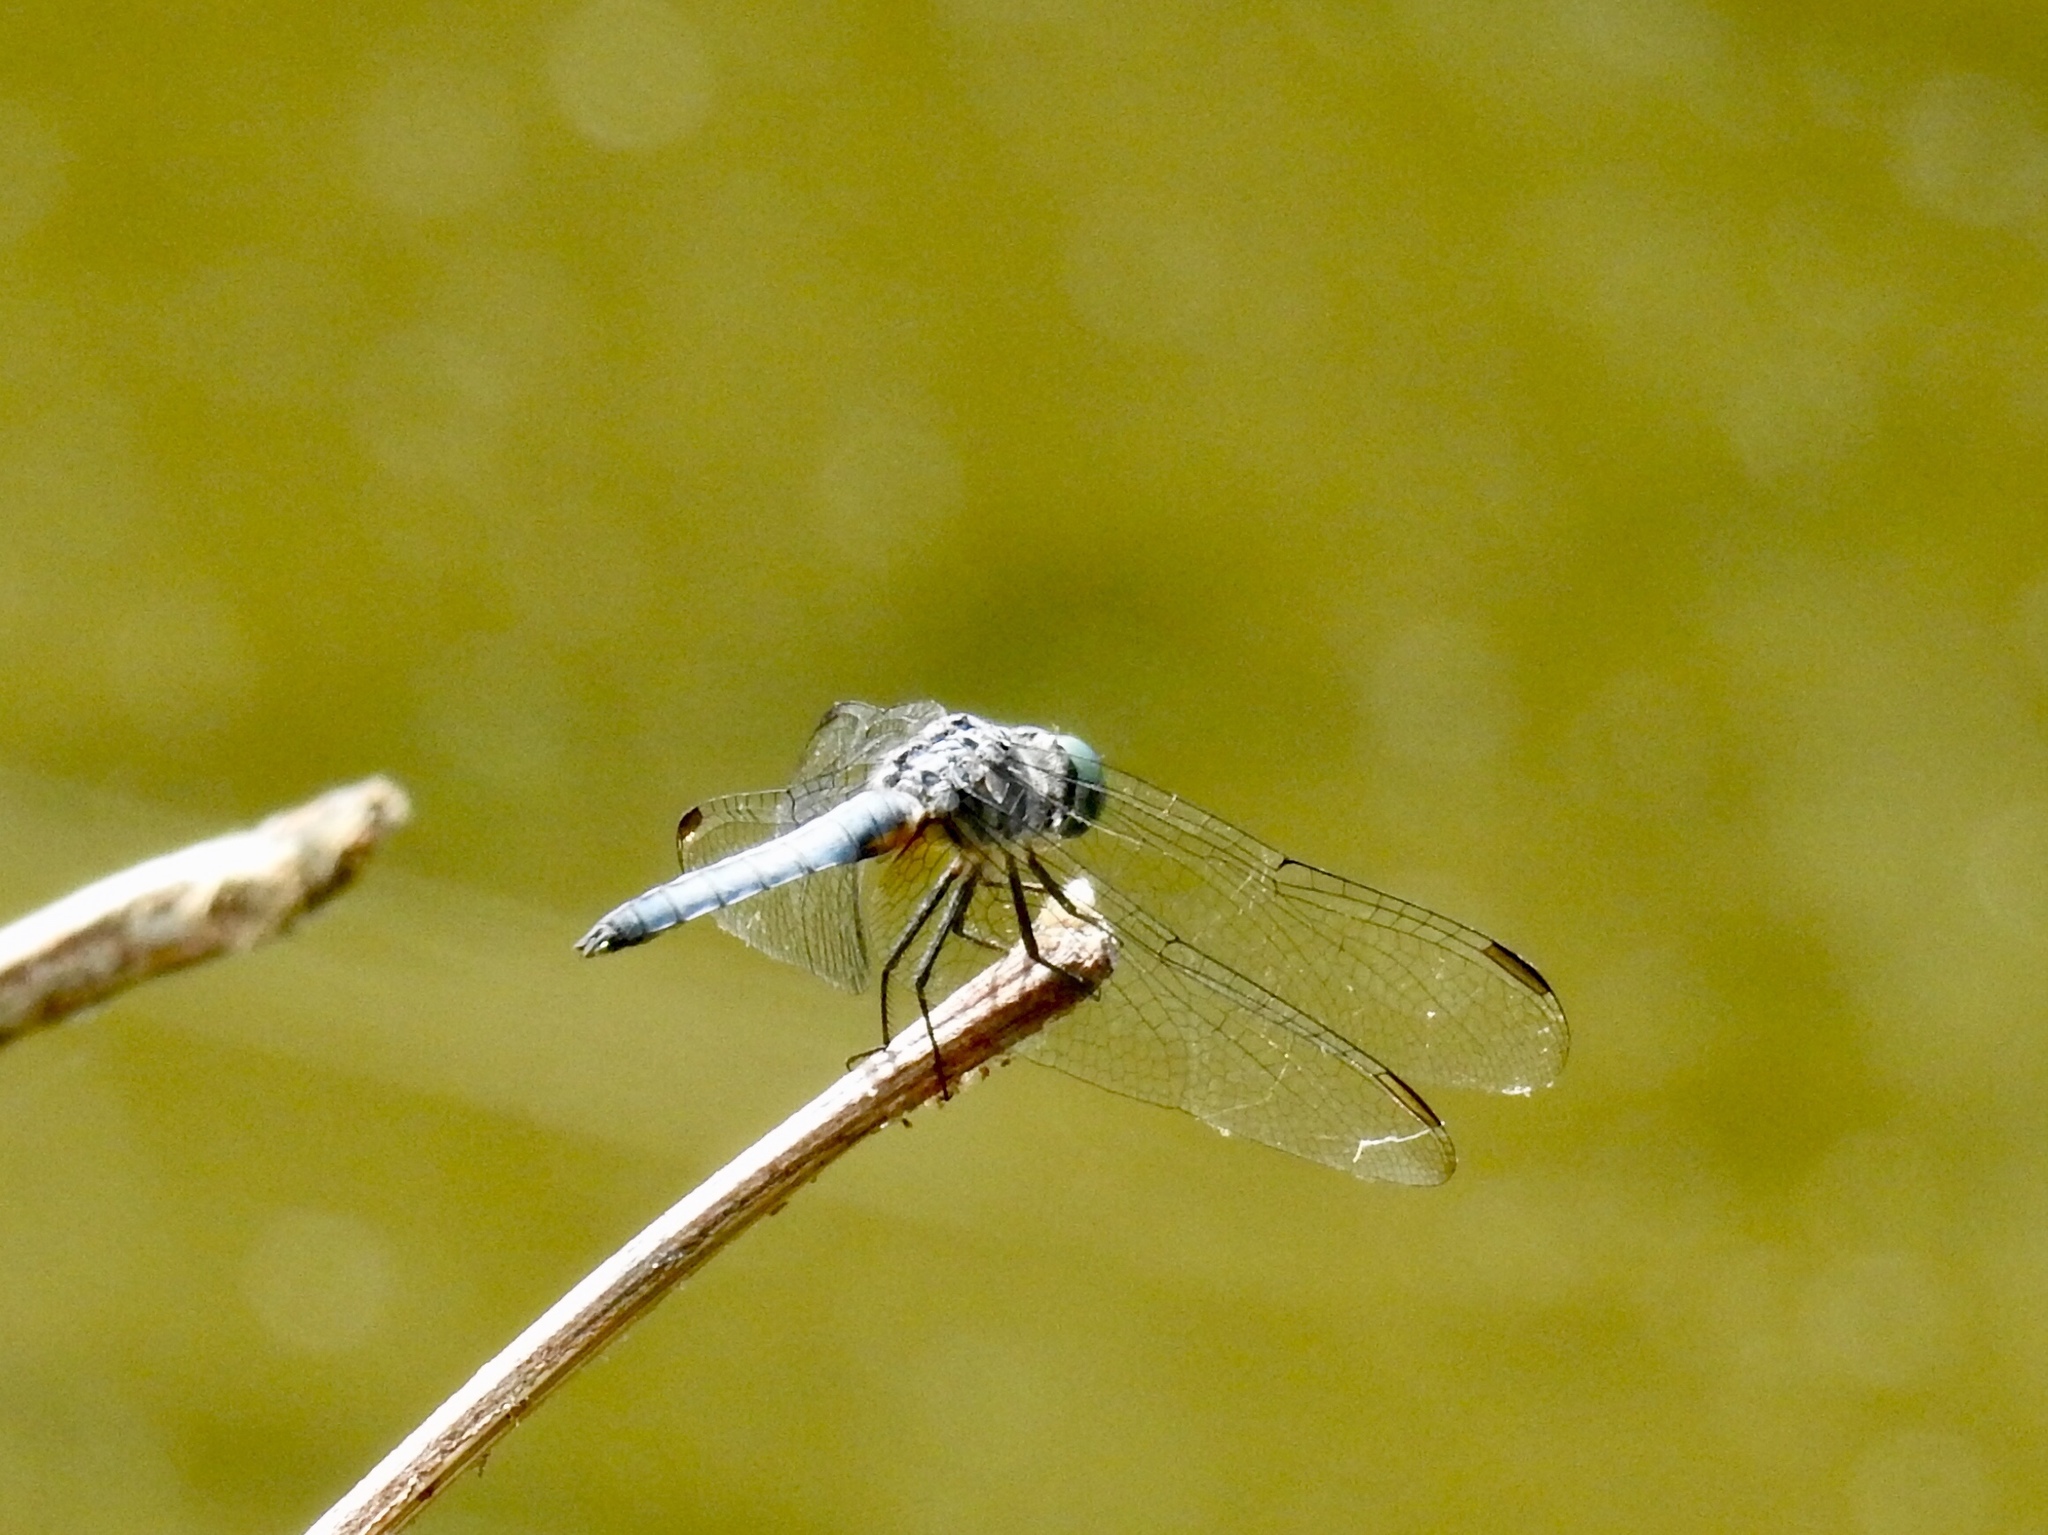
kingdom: Animalia
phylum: Arthropoda
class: Insecta
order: Odonata
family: Libellulidae
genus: Pachydiplax
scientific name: Pachydiplax longipennis
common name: Blue dasher
